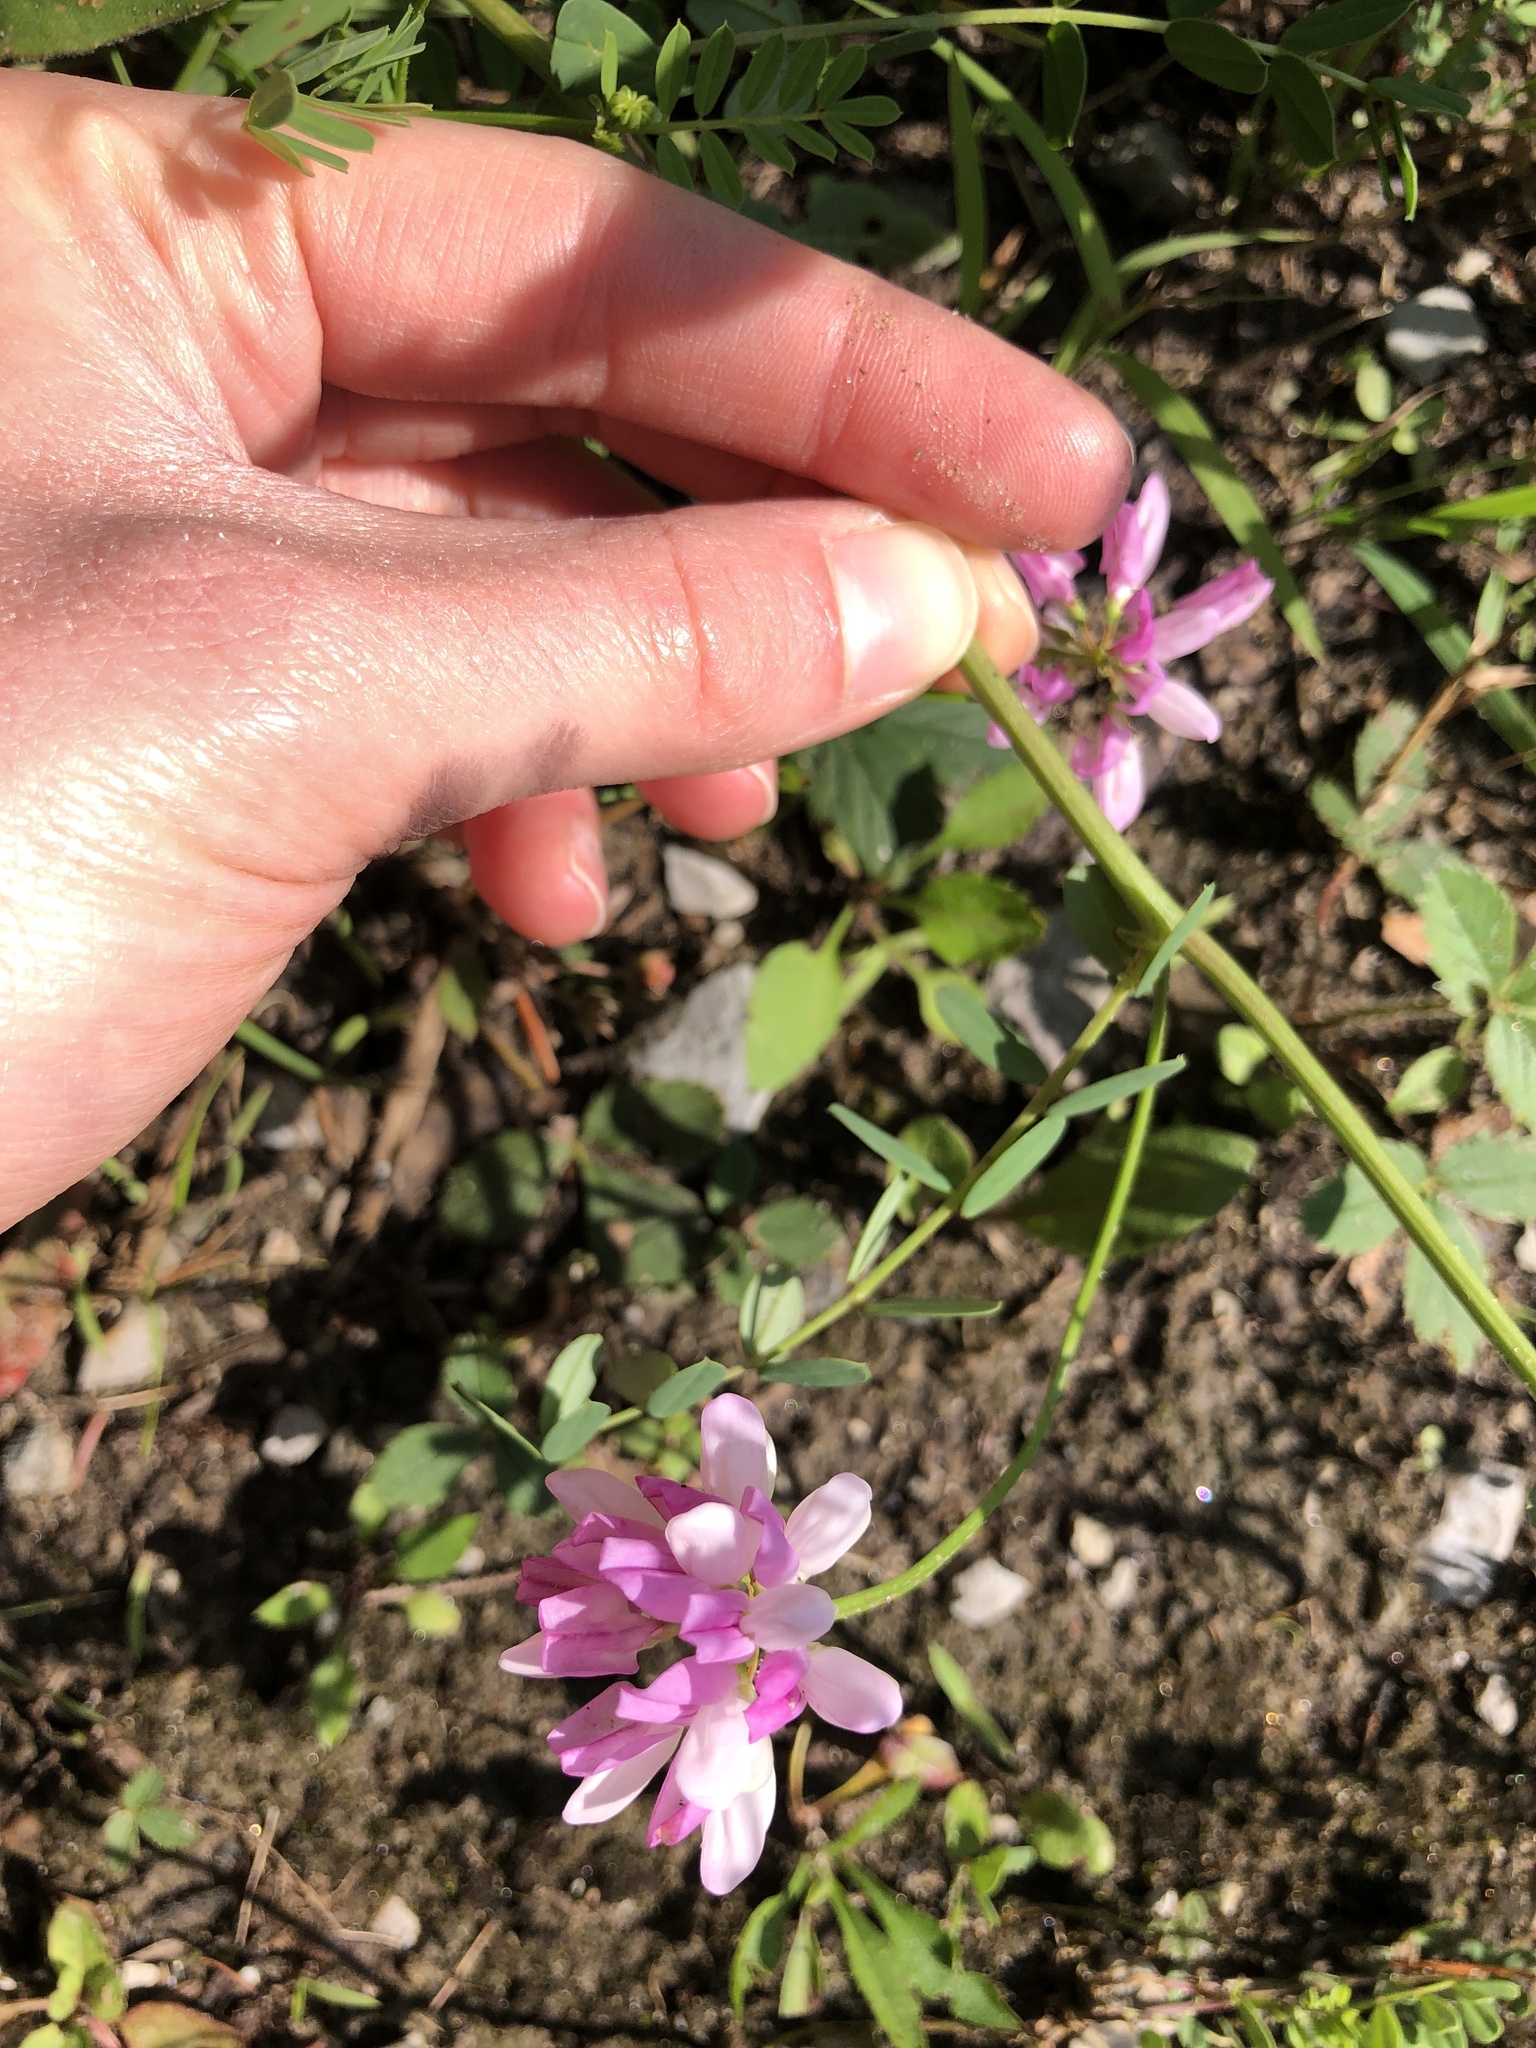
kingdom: Plantae
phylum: Tracheophyta
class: Magnoliopsida
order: Fabales
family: Fabaceae
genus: Coronilla
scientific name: Coronilla varia
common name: Crownvetch
